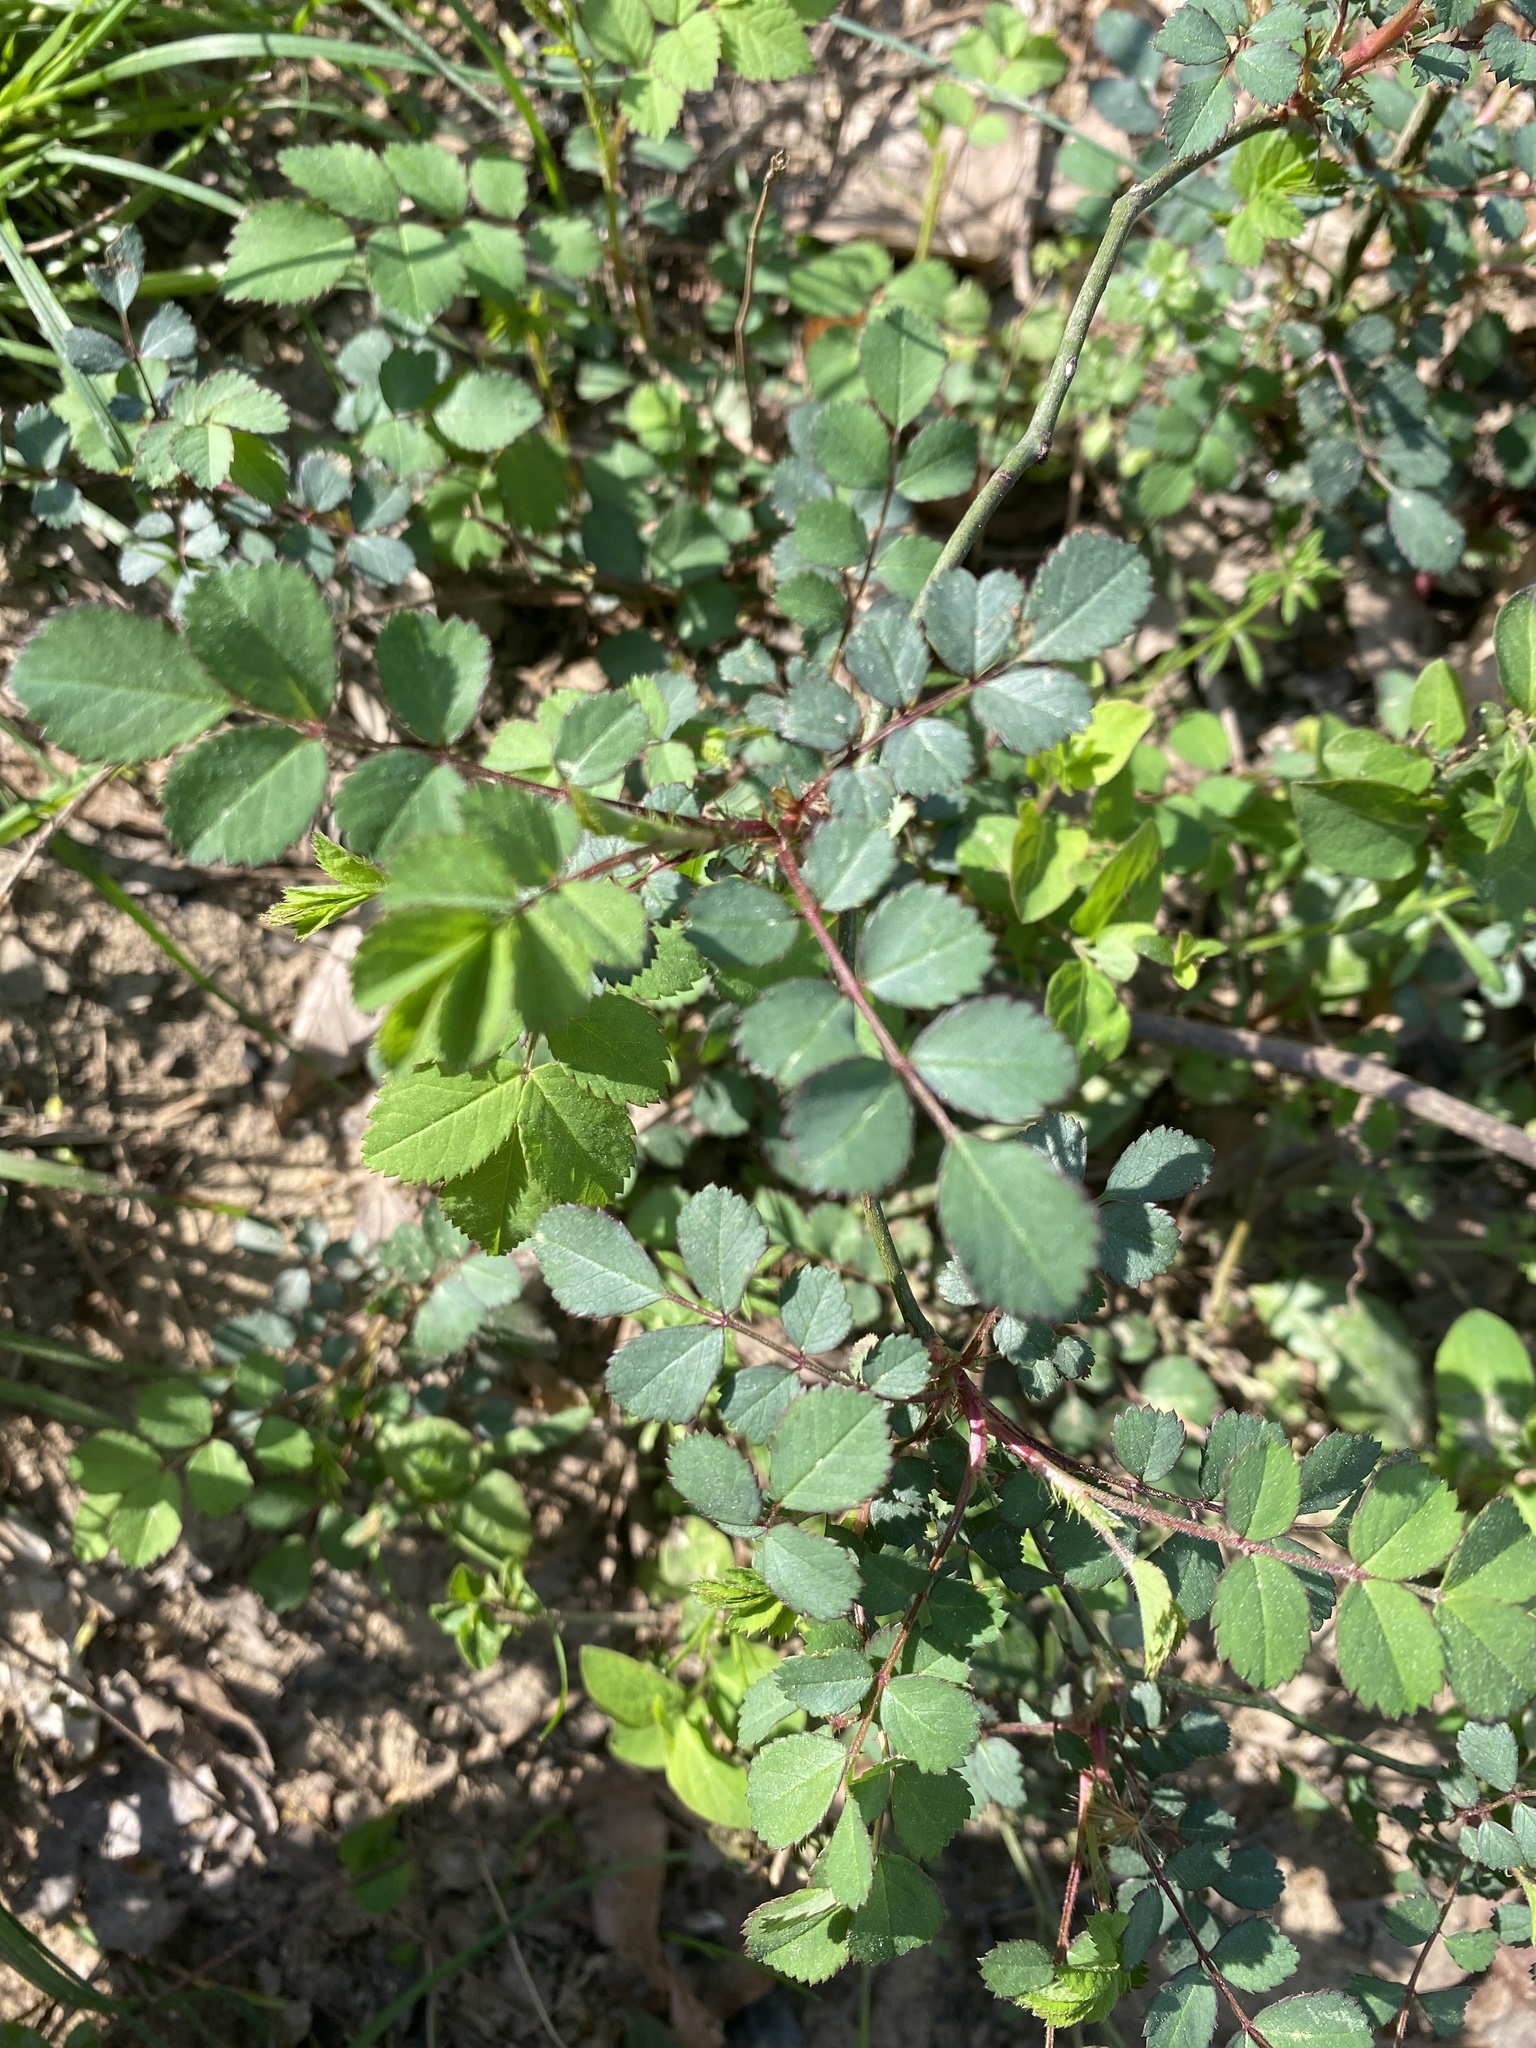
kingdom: Plantae
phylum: Tracheophyta
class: Magnoliopsida
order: Rosales
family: Rosaceae
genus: Rosa
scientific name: Rosa multiflora
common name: Multiflora rose
